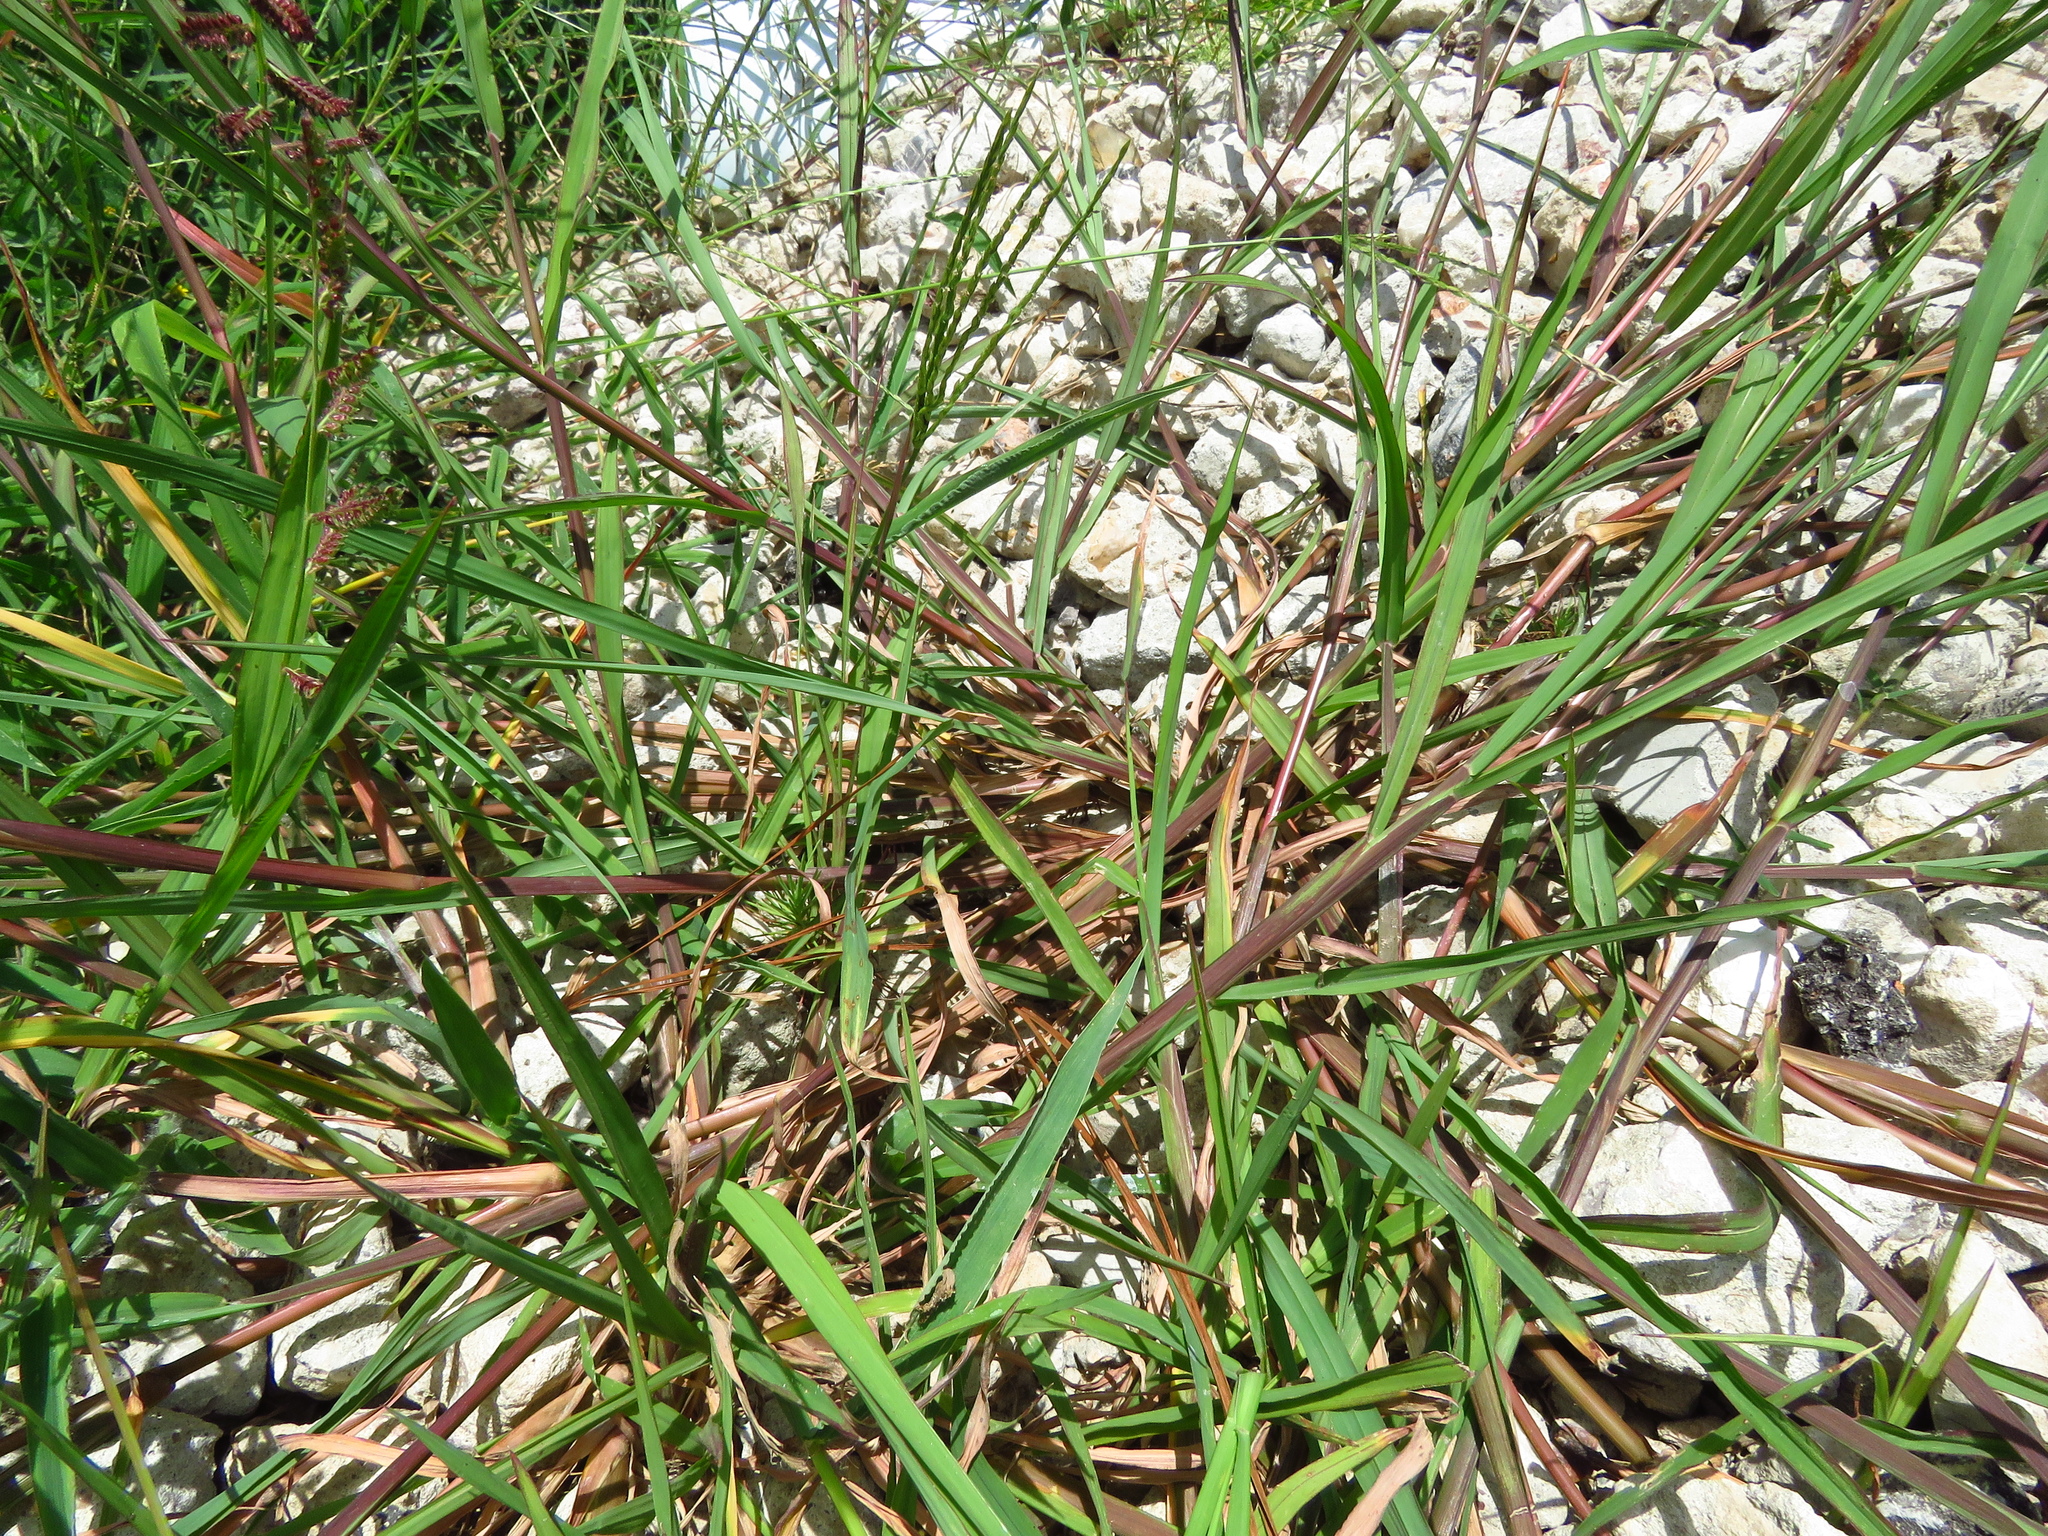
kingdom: Plantae
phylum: Tracheophyta
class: Liliopsida
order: Poales
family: Poaceae
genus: Echinochloa
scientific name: Echinochloa colonum
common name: Jungle rice
